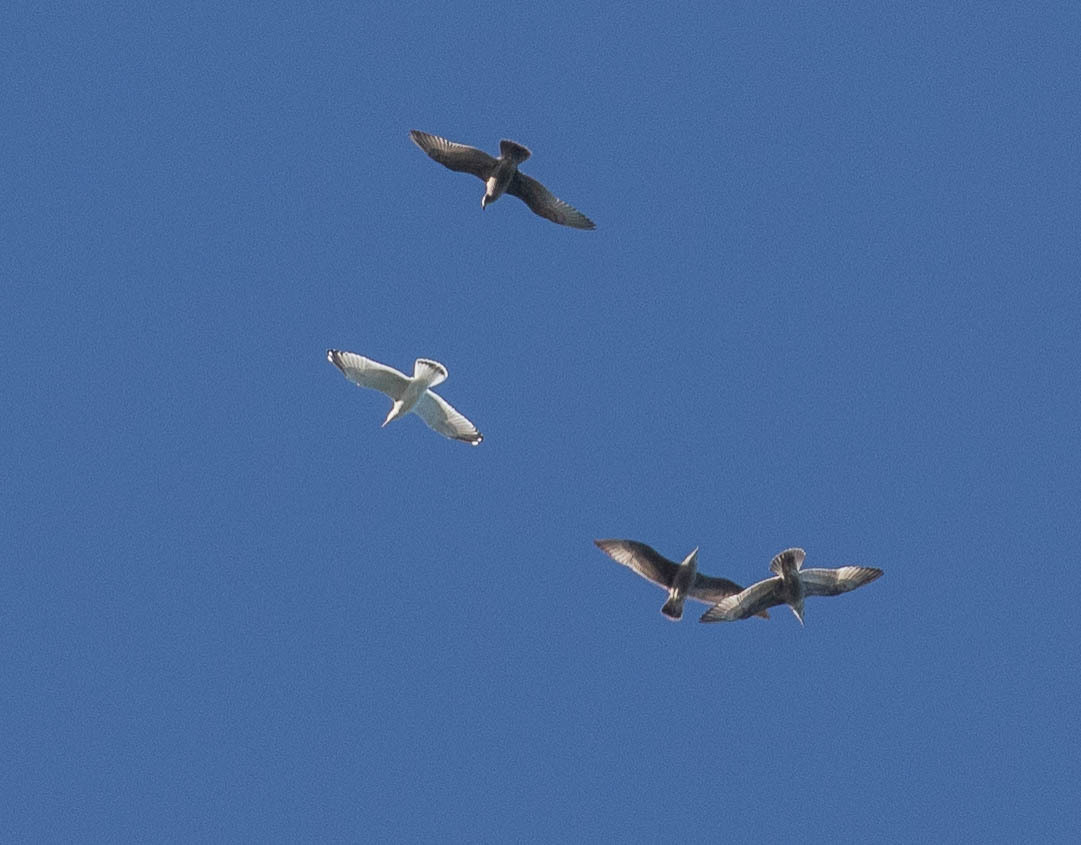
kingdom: Animalia
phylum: Chordata
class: Aves
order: Charadriiformes
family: Laridae
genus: Larus
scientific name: Larus argentatus
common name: Herring gull
